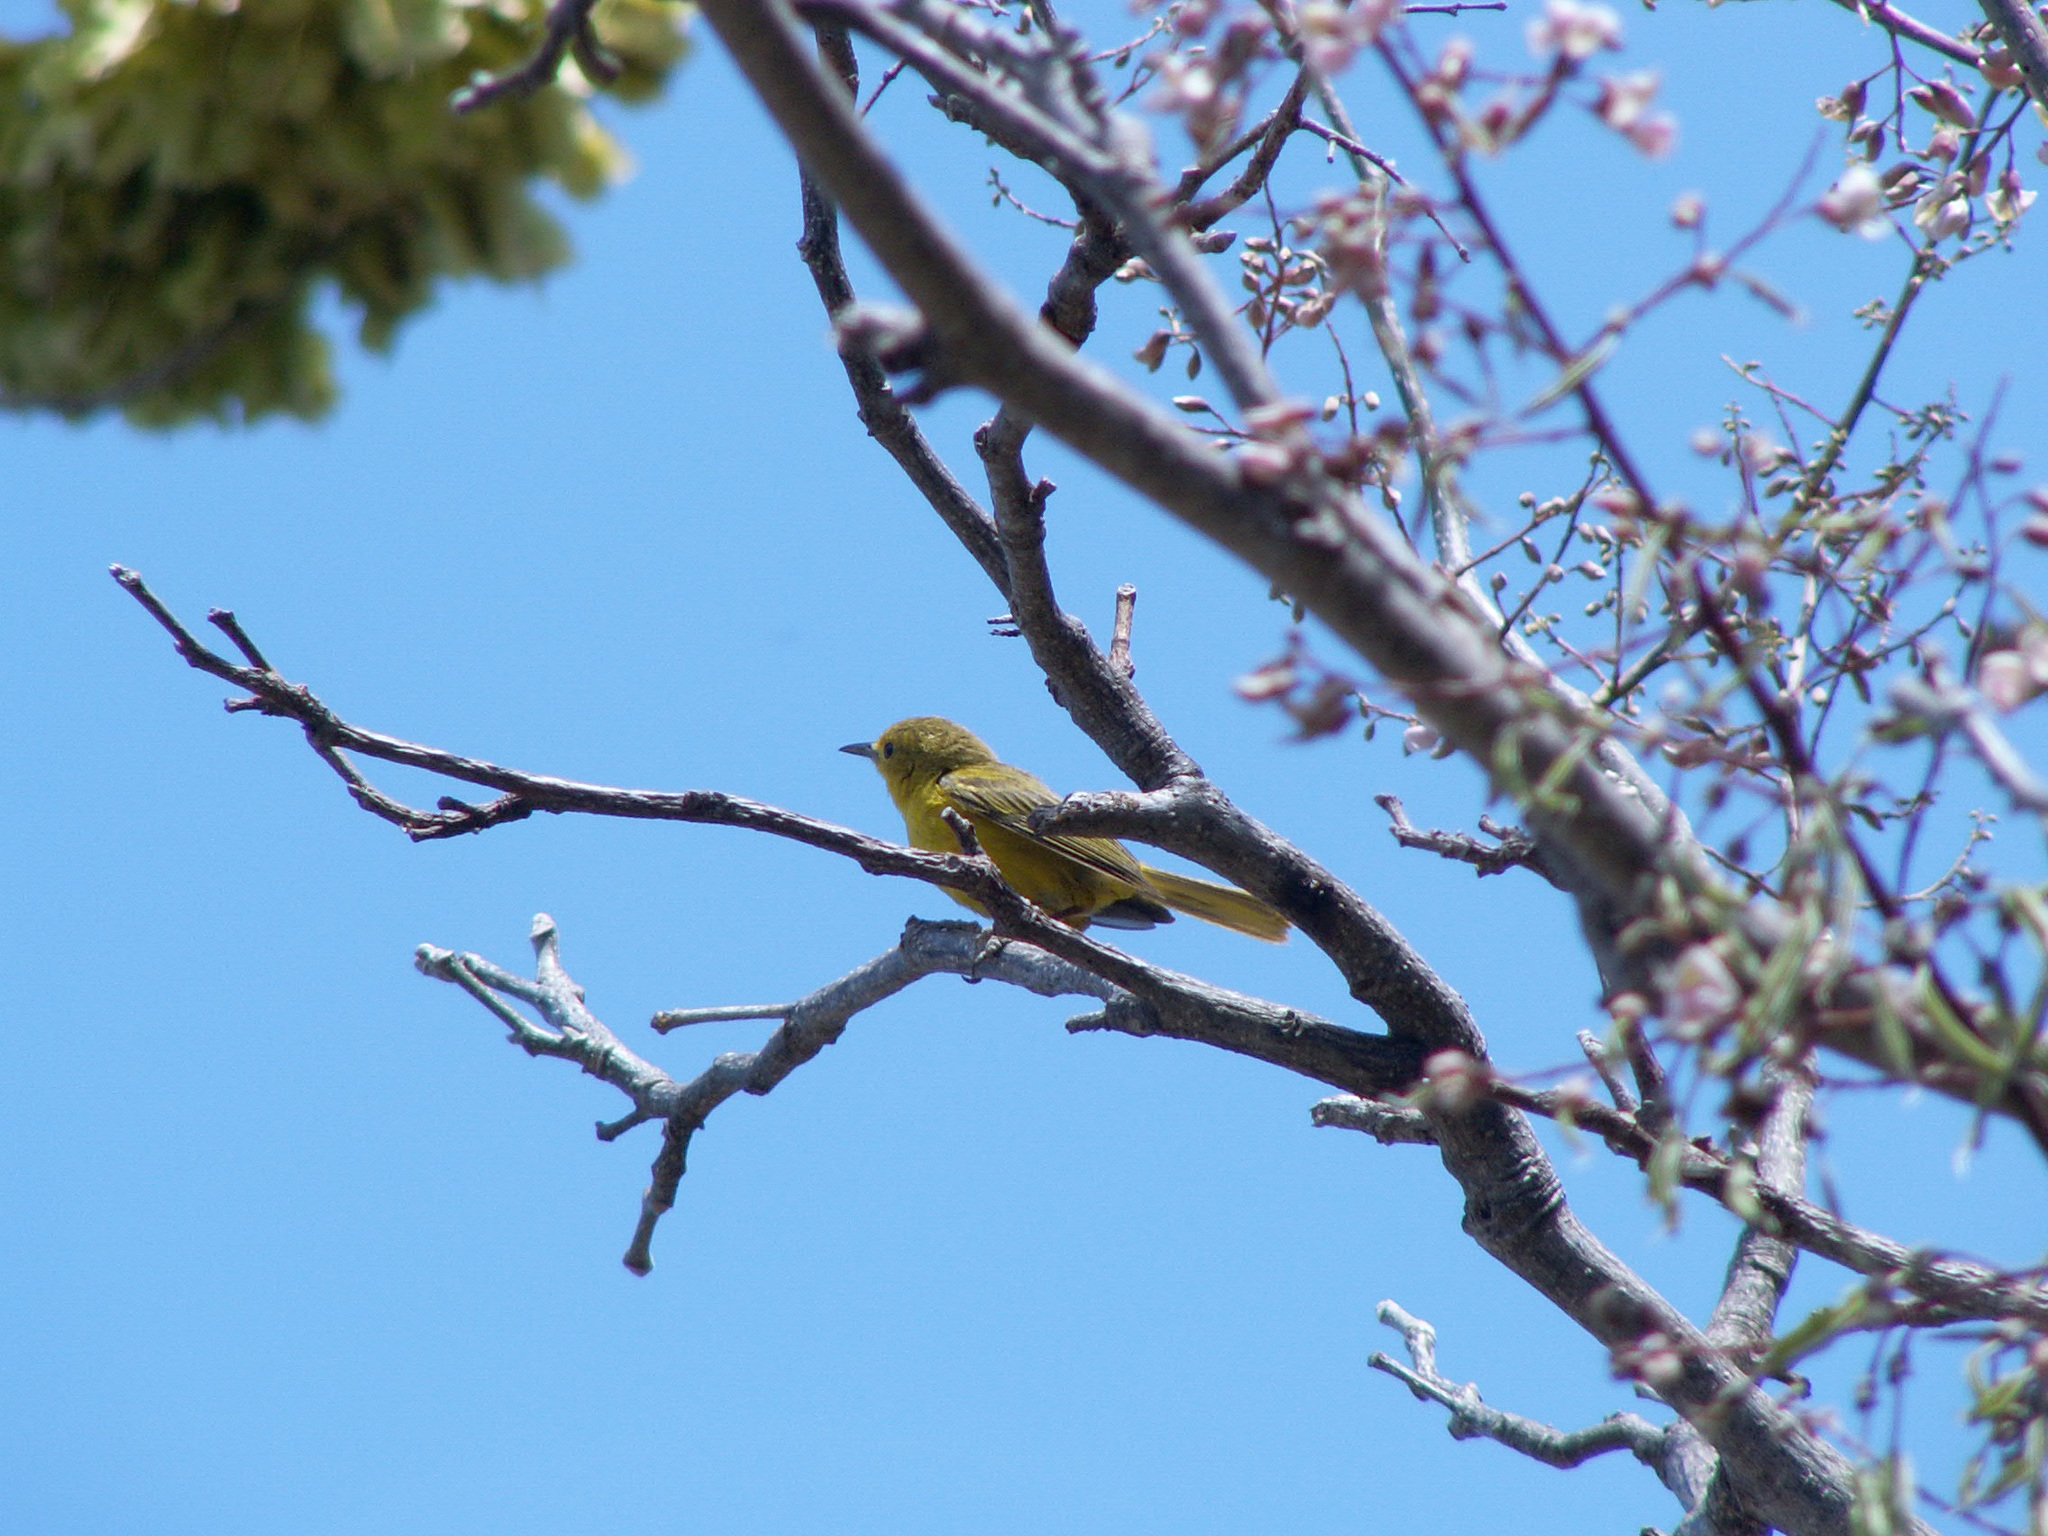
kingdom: Animalia
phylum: Chordata
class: Aves
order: Passeriformes
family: Parulidae
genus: Setophaga
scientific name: Setophaga petechia
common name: Yellow warbler
